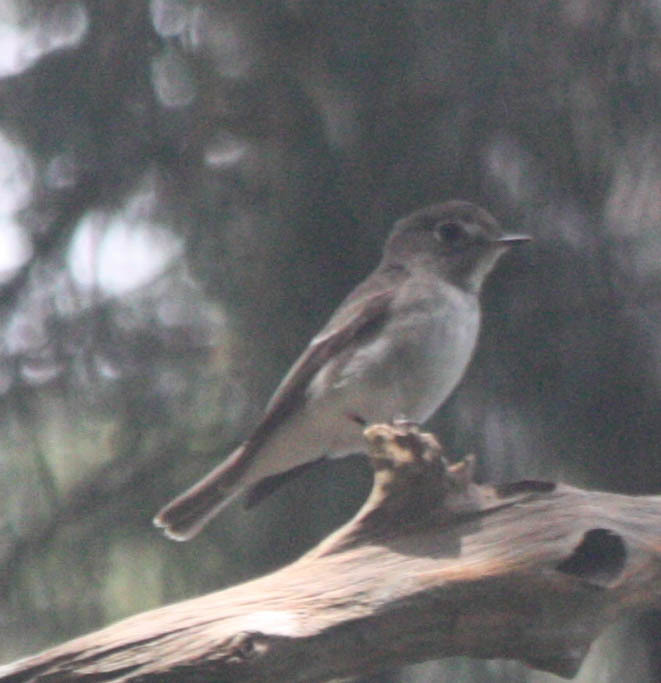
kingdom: Animalia
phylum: Chordata
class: Aves
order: Passeriformes
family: Muscicapidae
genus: Muscicapa
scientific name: Muscicapa latirostris
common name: Asian brown flycatcher
